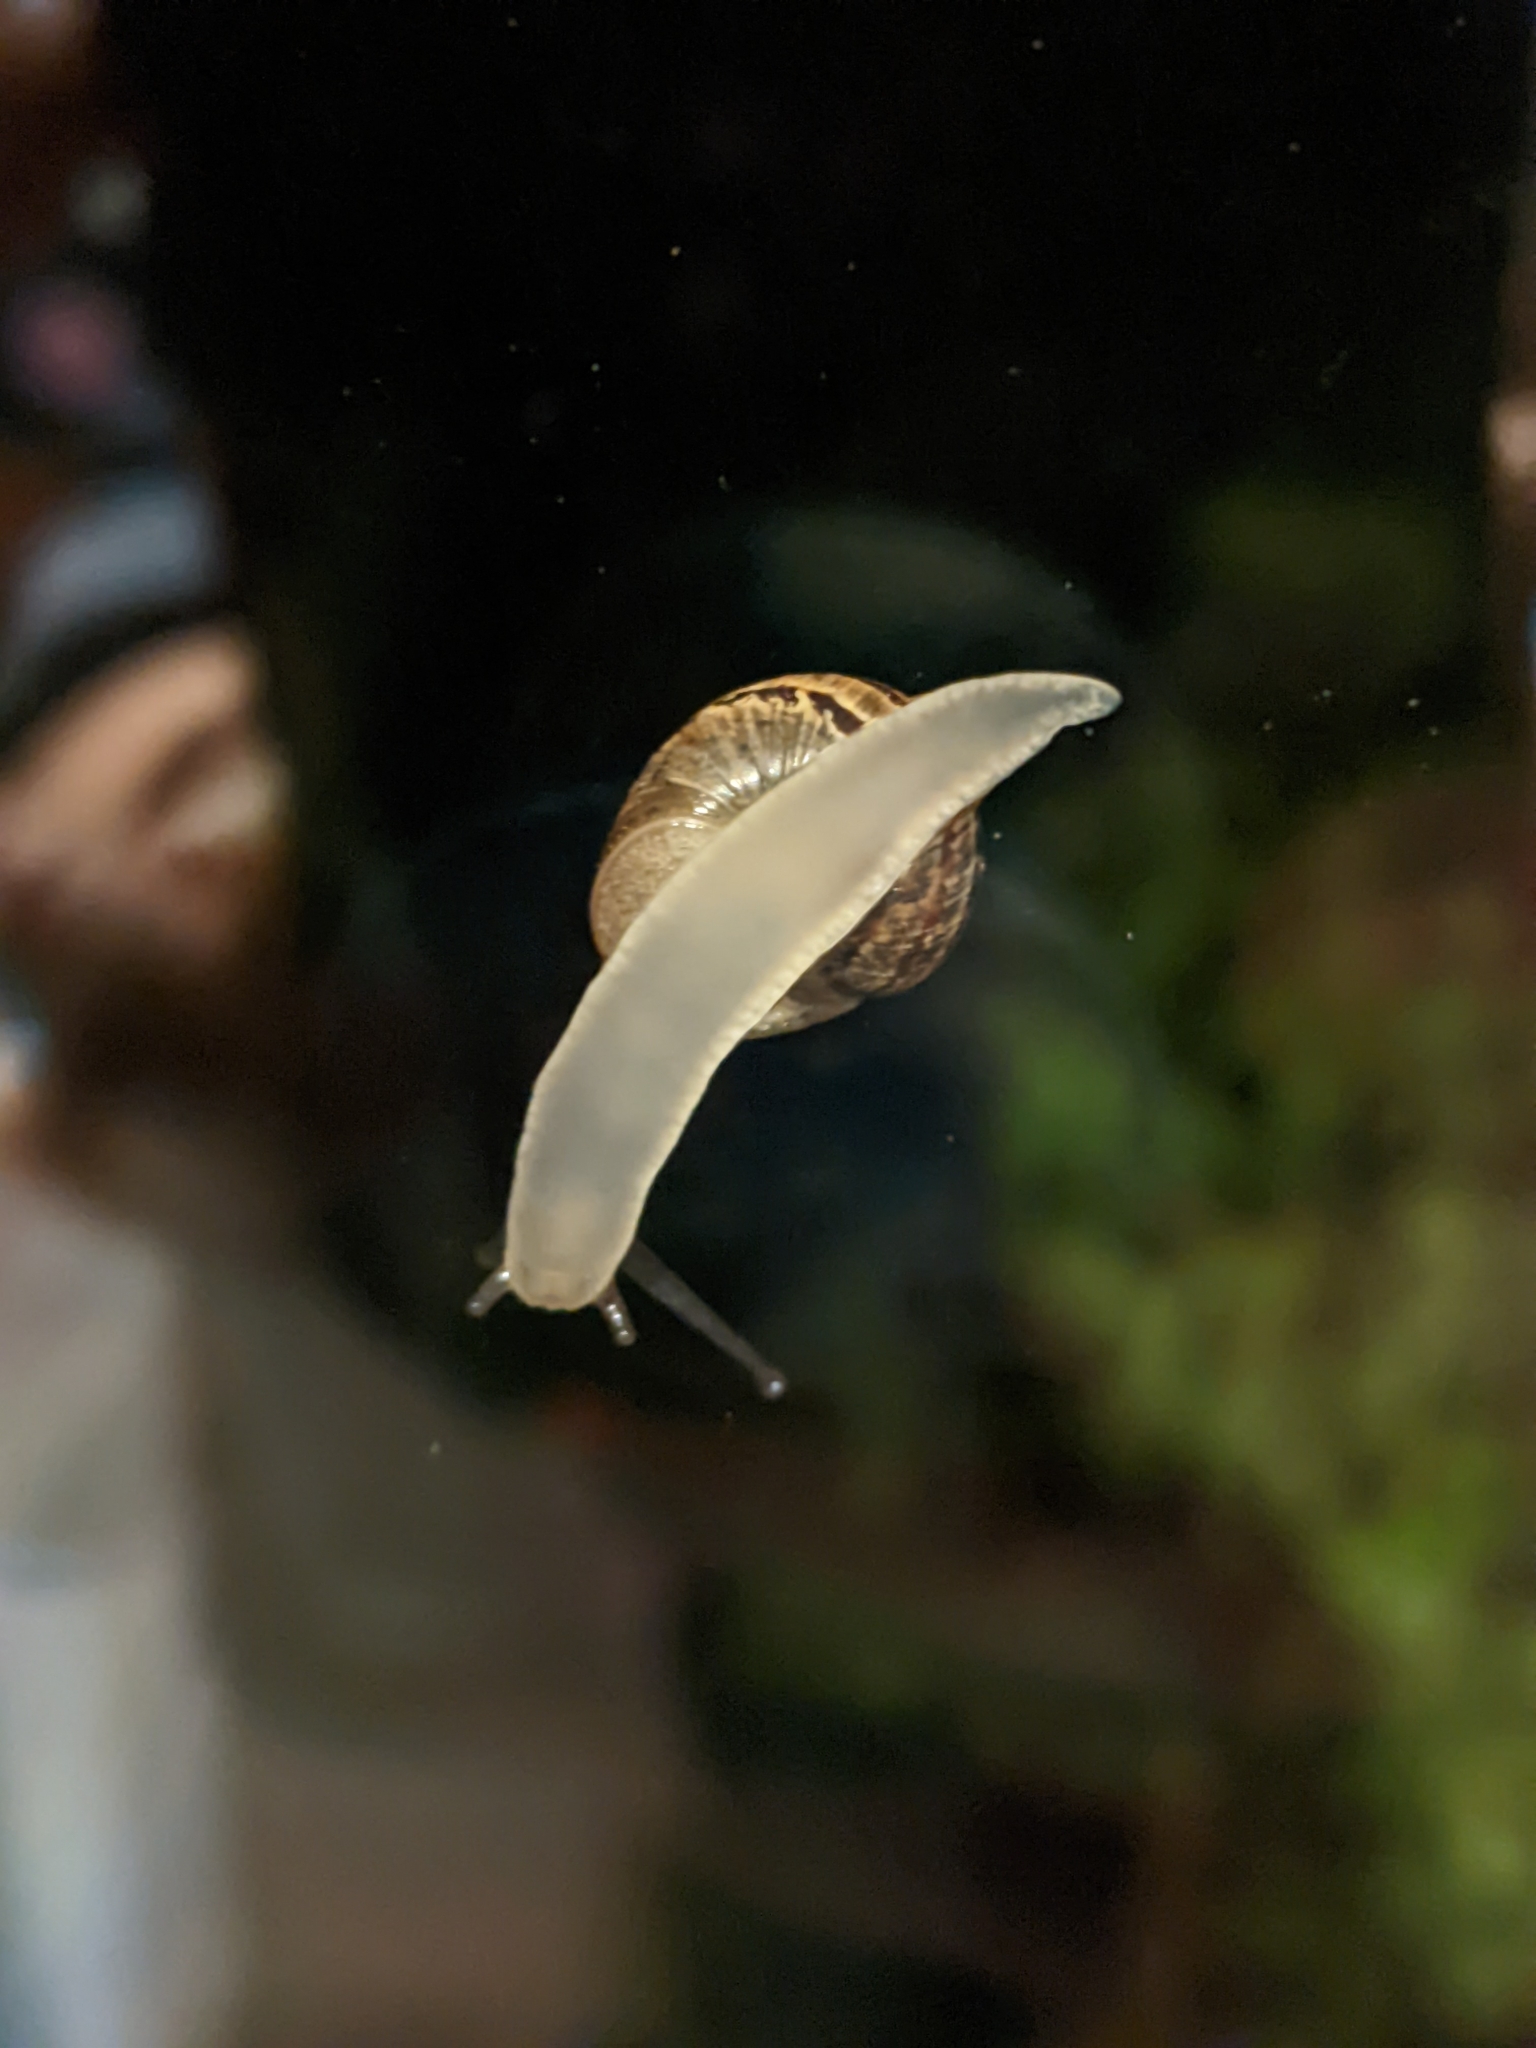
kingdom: Animalia
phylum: Mollusca
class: Gastropoda
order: Stylommatophora
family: Helicidae
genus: Cornu
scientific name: Cornu aspersum
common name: Brown garden snail
